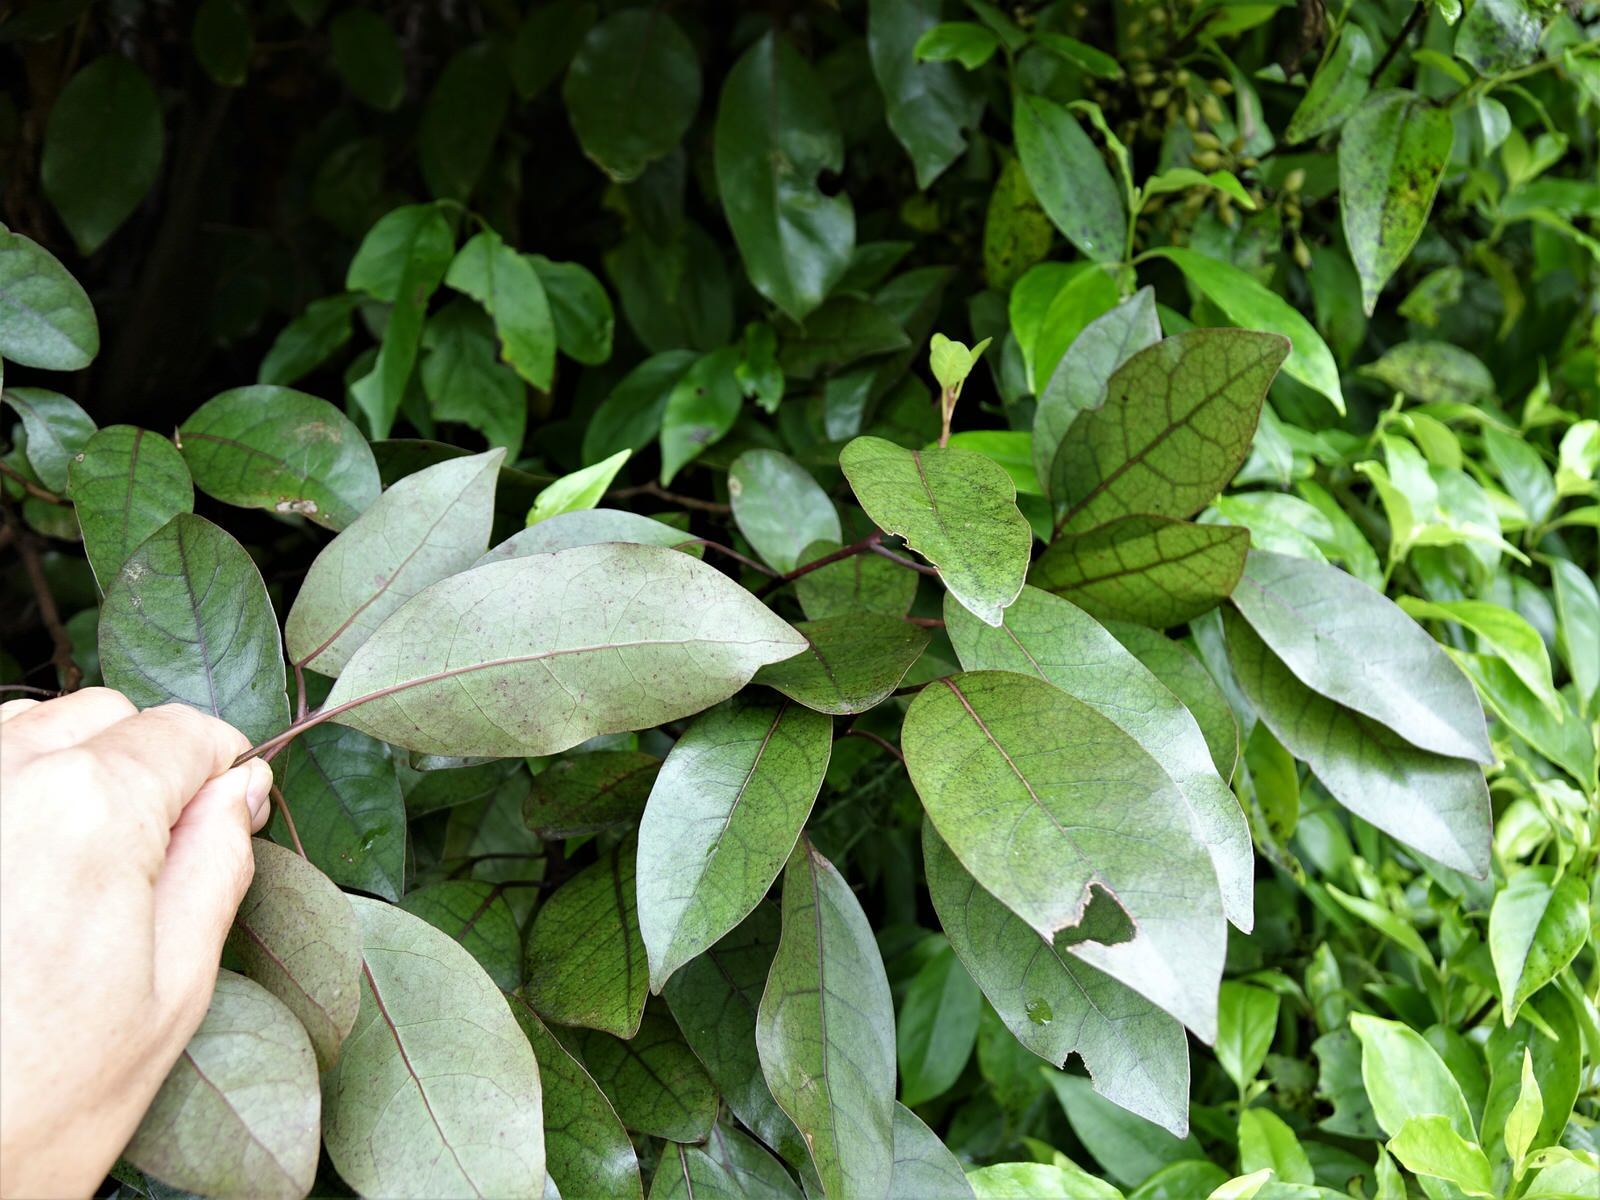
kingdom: Plantae
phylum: Tracheophyta
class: Magnoliopsida
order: Laurales
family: Lauraceae
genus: Litsea
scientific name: Litsea calicaris
